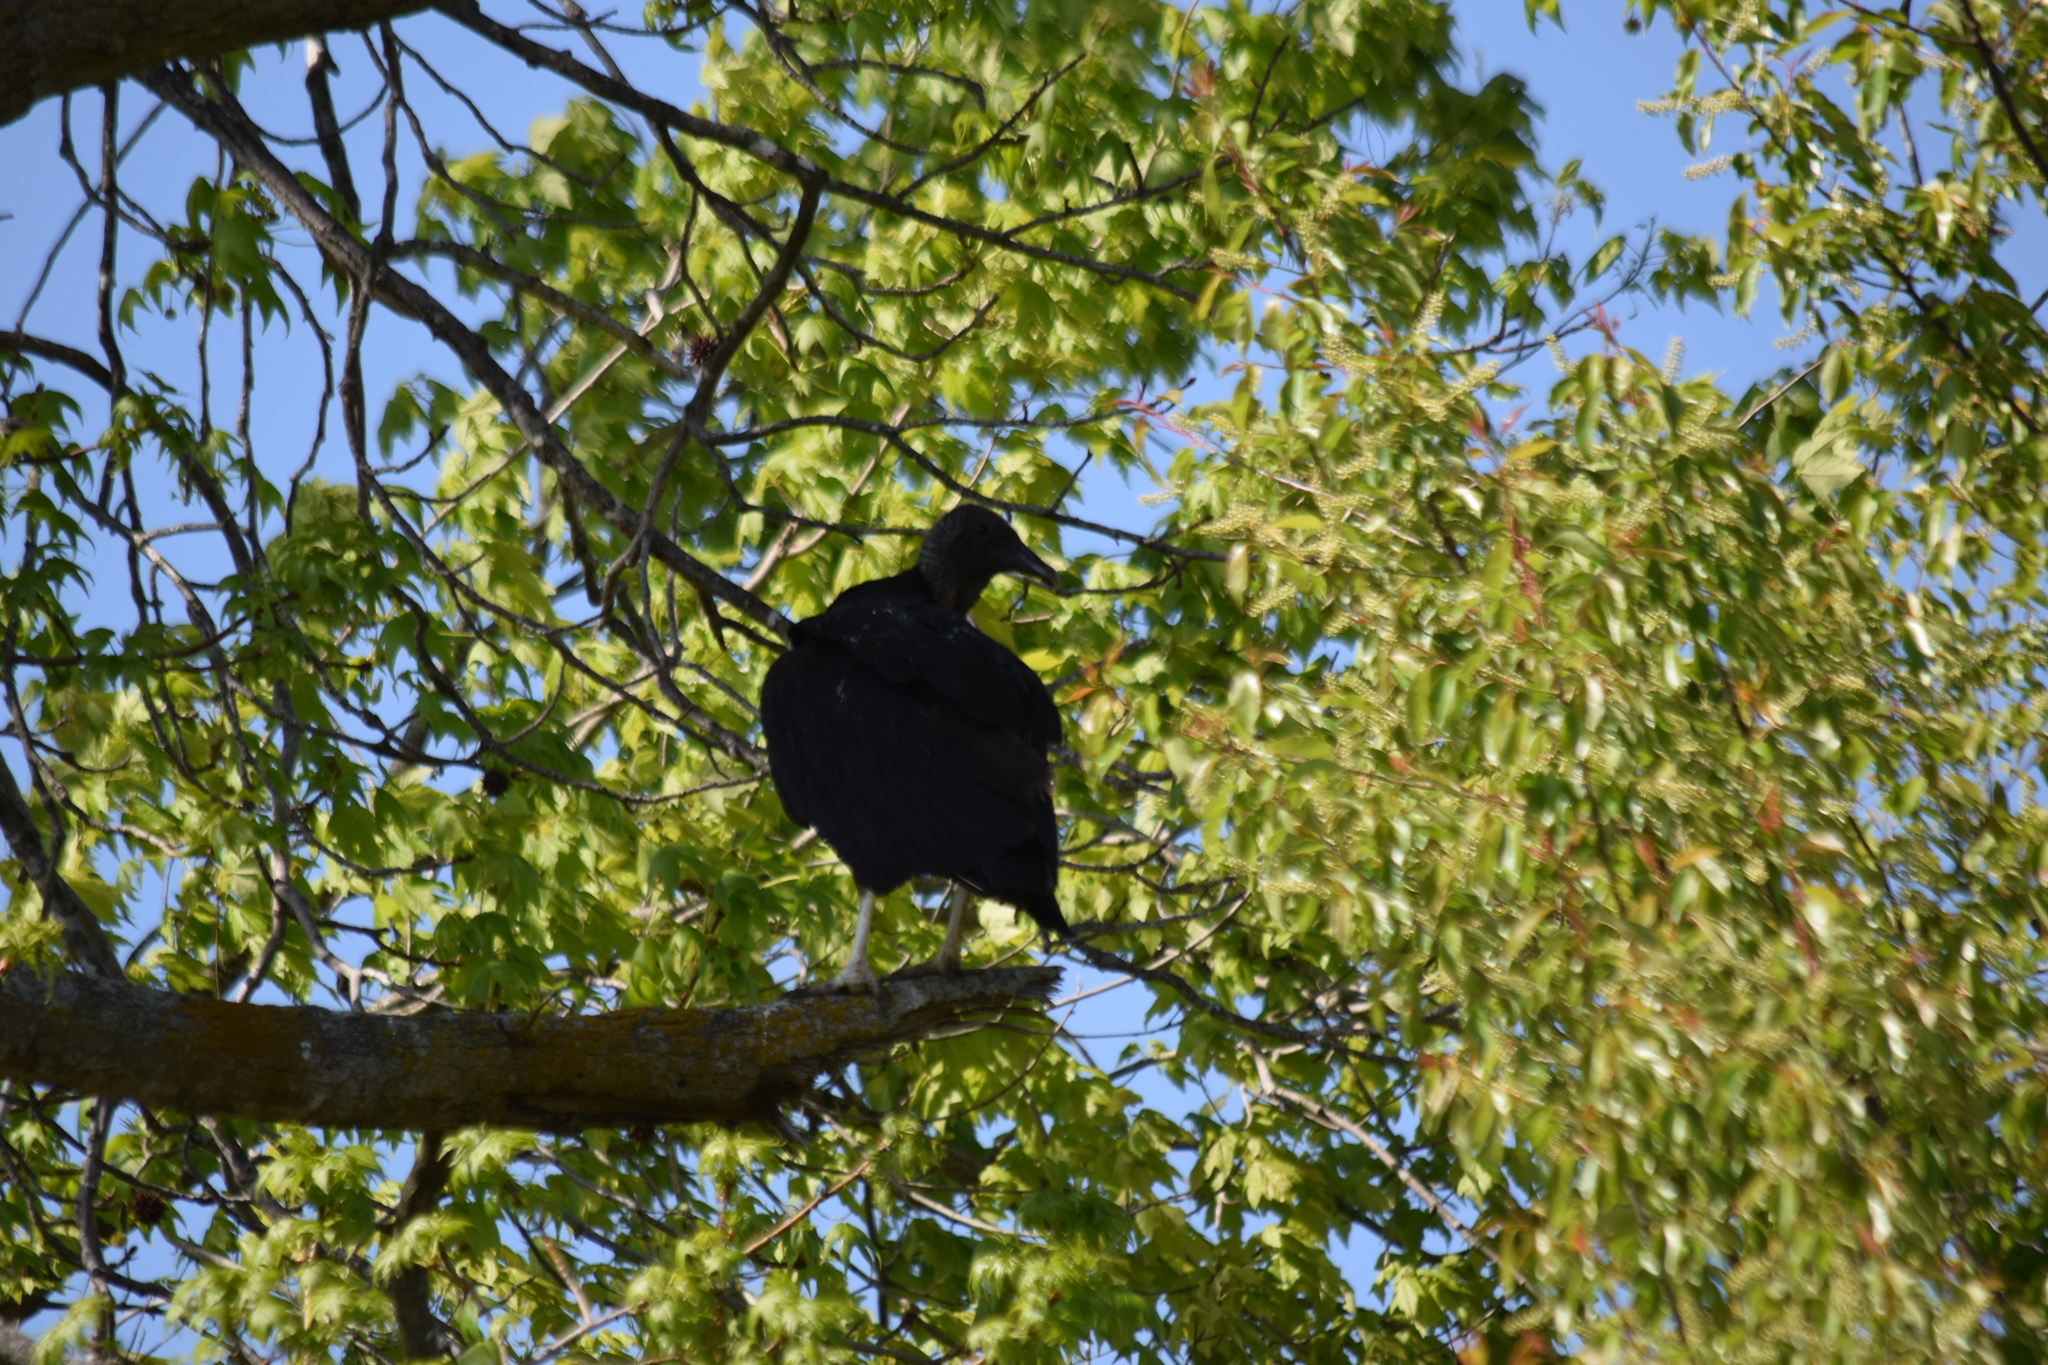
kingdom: Animalia
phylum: Chordata
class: Aves
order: Accipitriformes
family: Cathartidae
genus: Coragyps
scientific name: Coragyps atratus
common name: Black vulture
